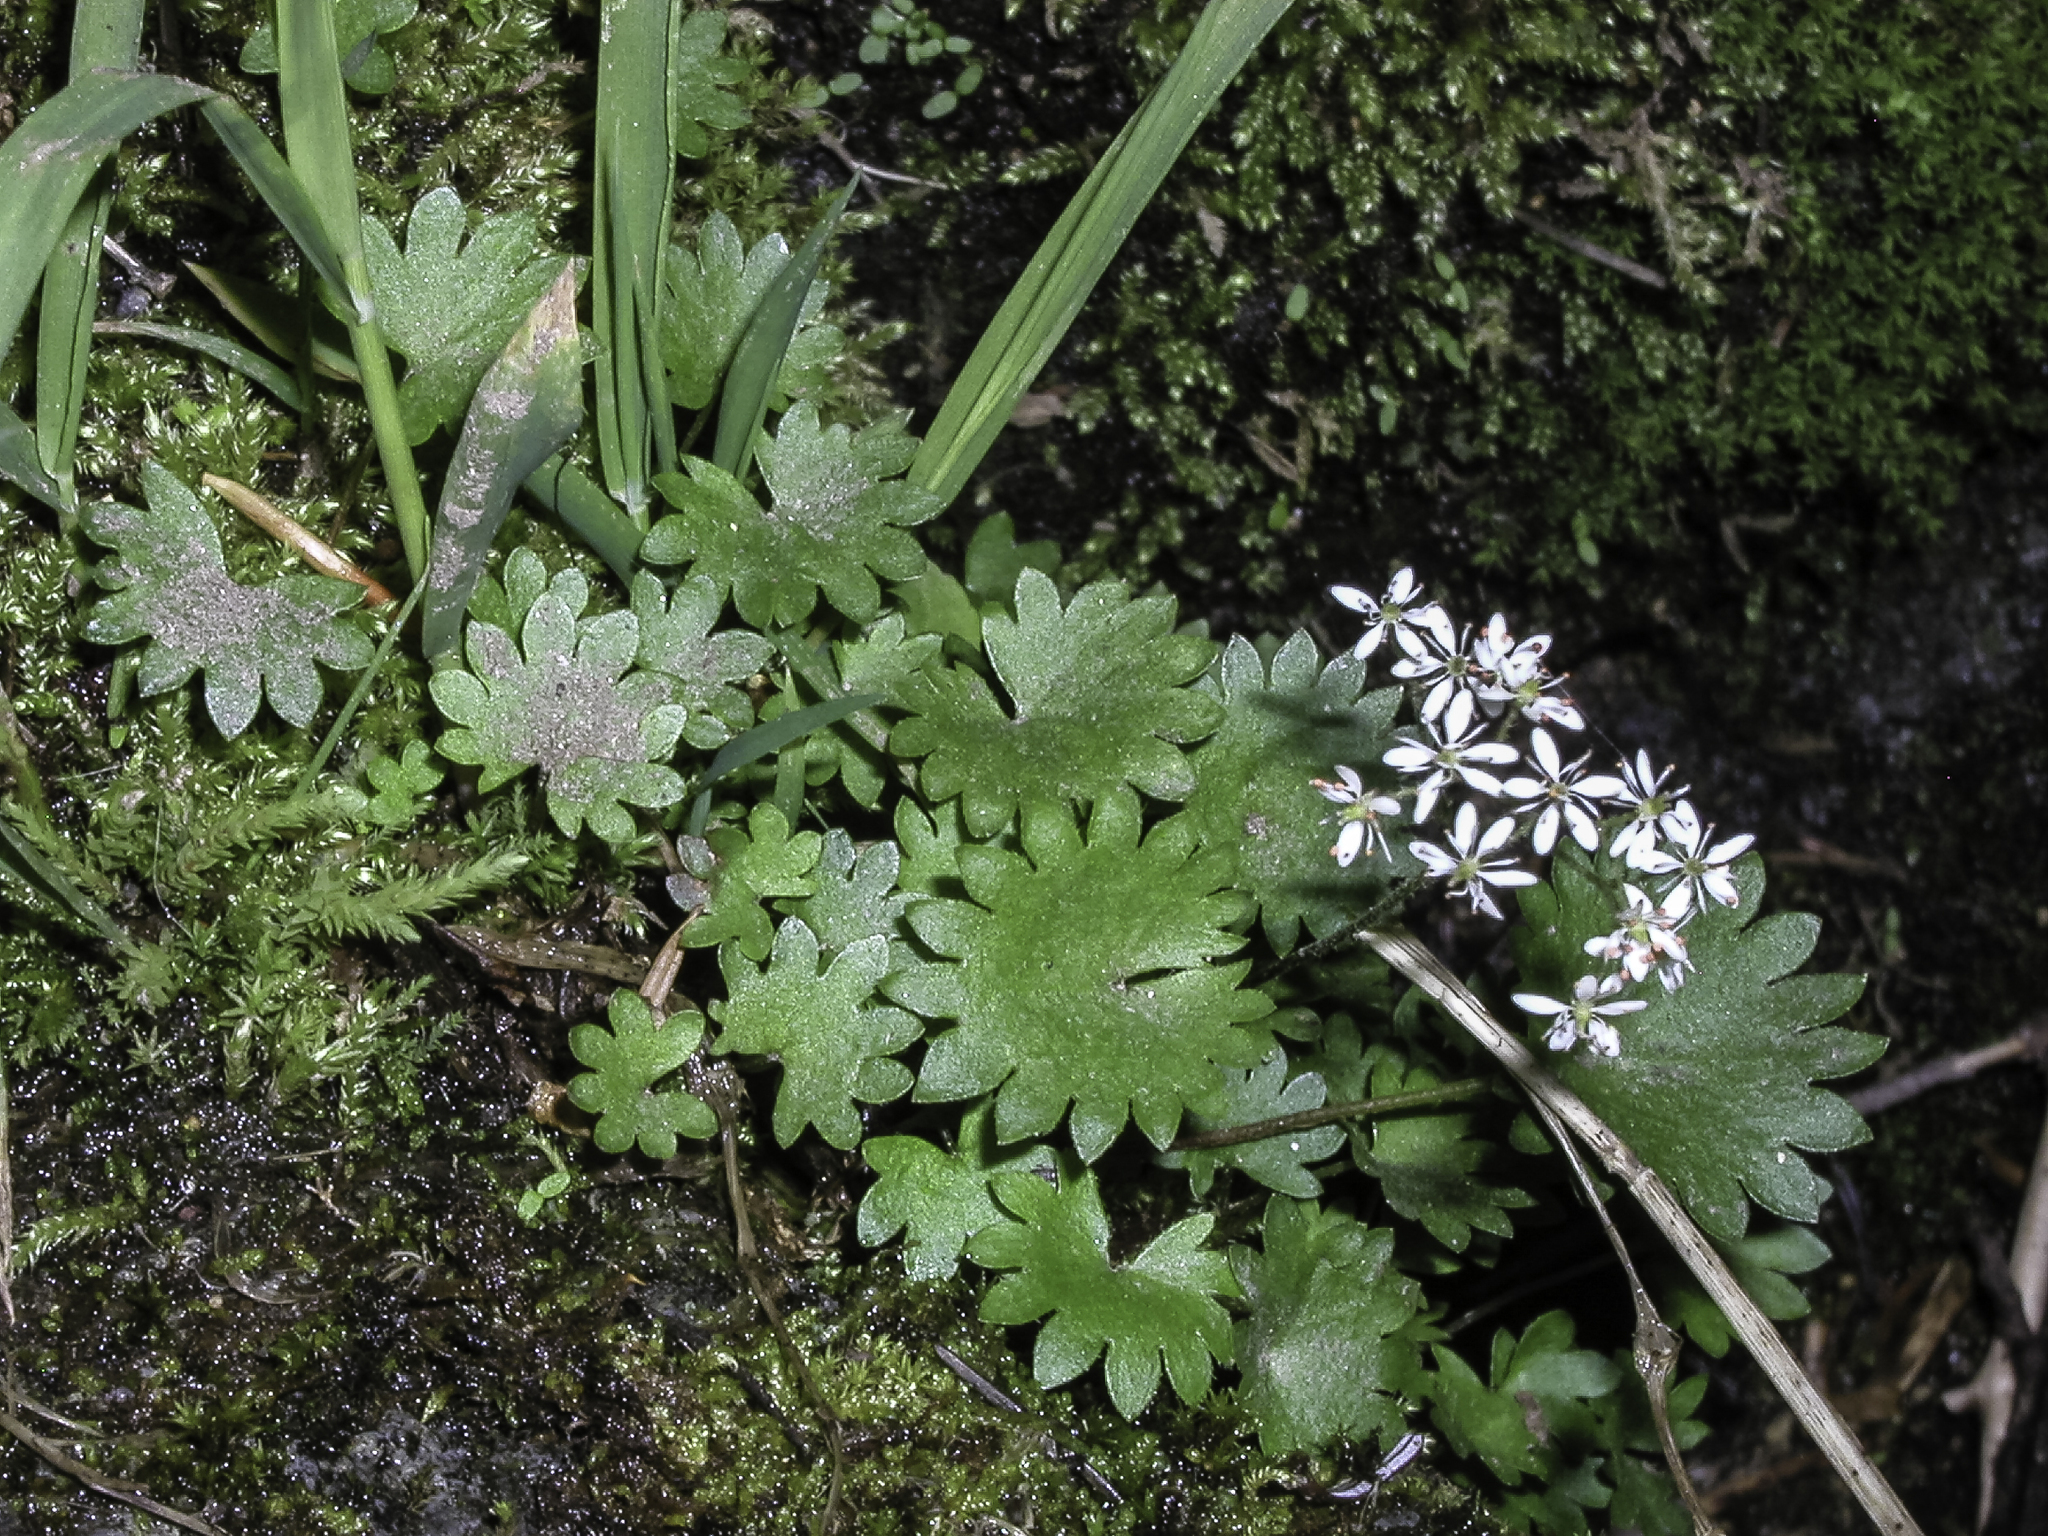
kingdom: Plantae
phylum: Tracheophyta
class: Magnoliopsida
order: Saxifragales
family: Saxifragaceae
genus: Micranthes
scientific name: Micranthes nelsoniana
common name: Nelson's saxifrage
